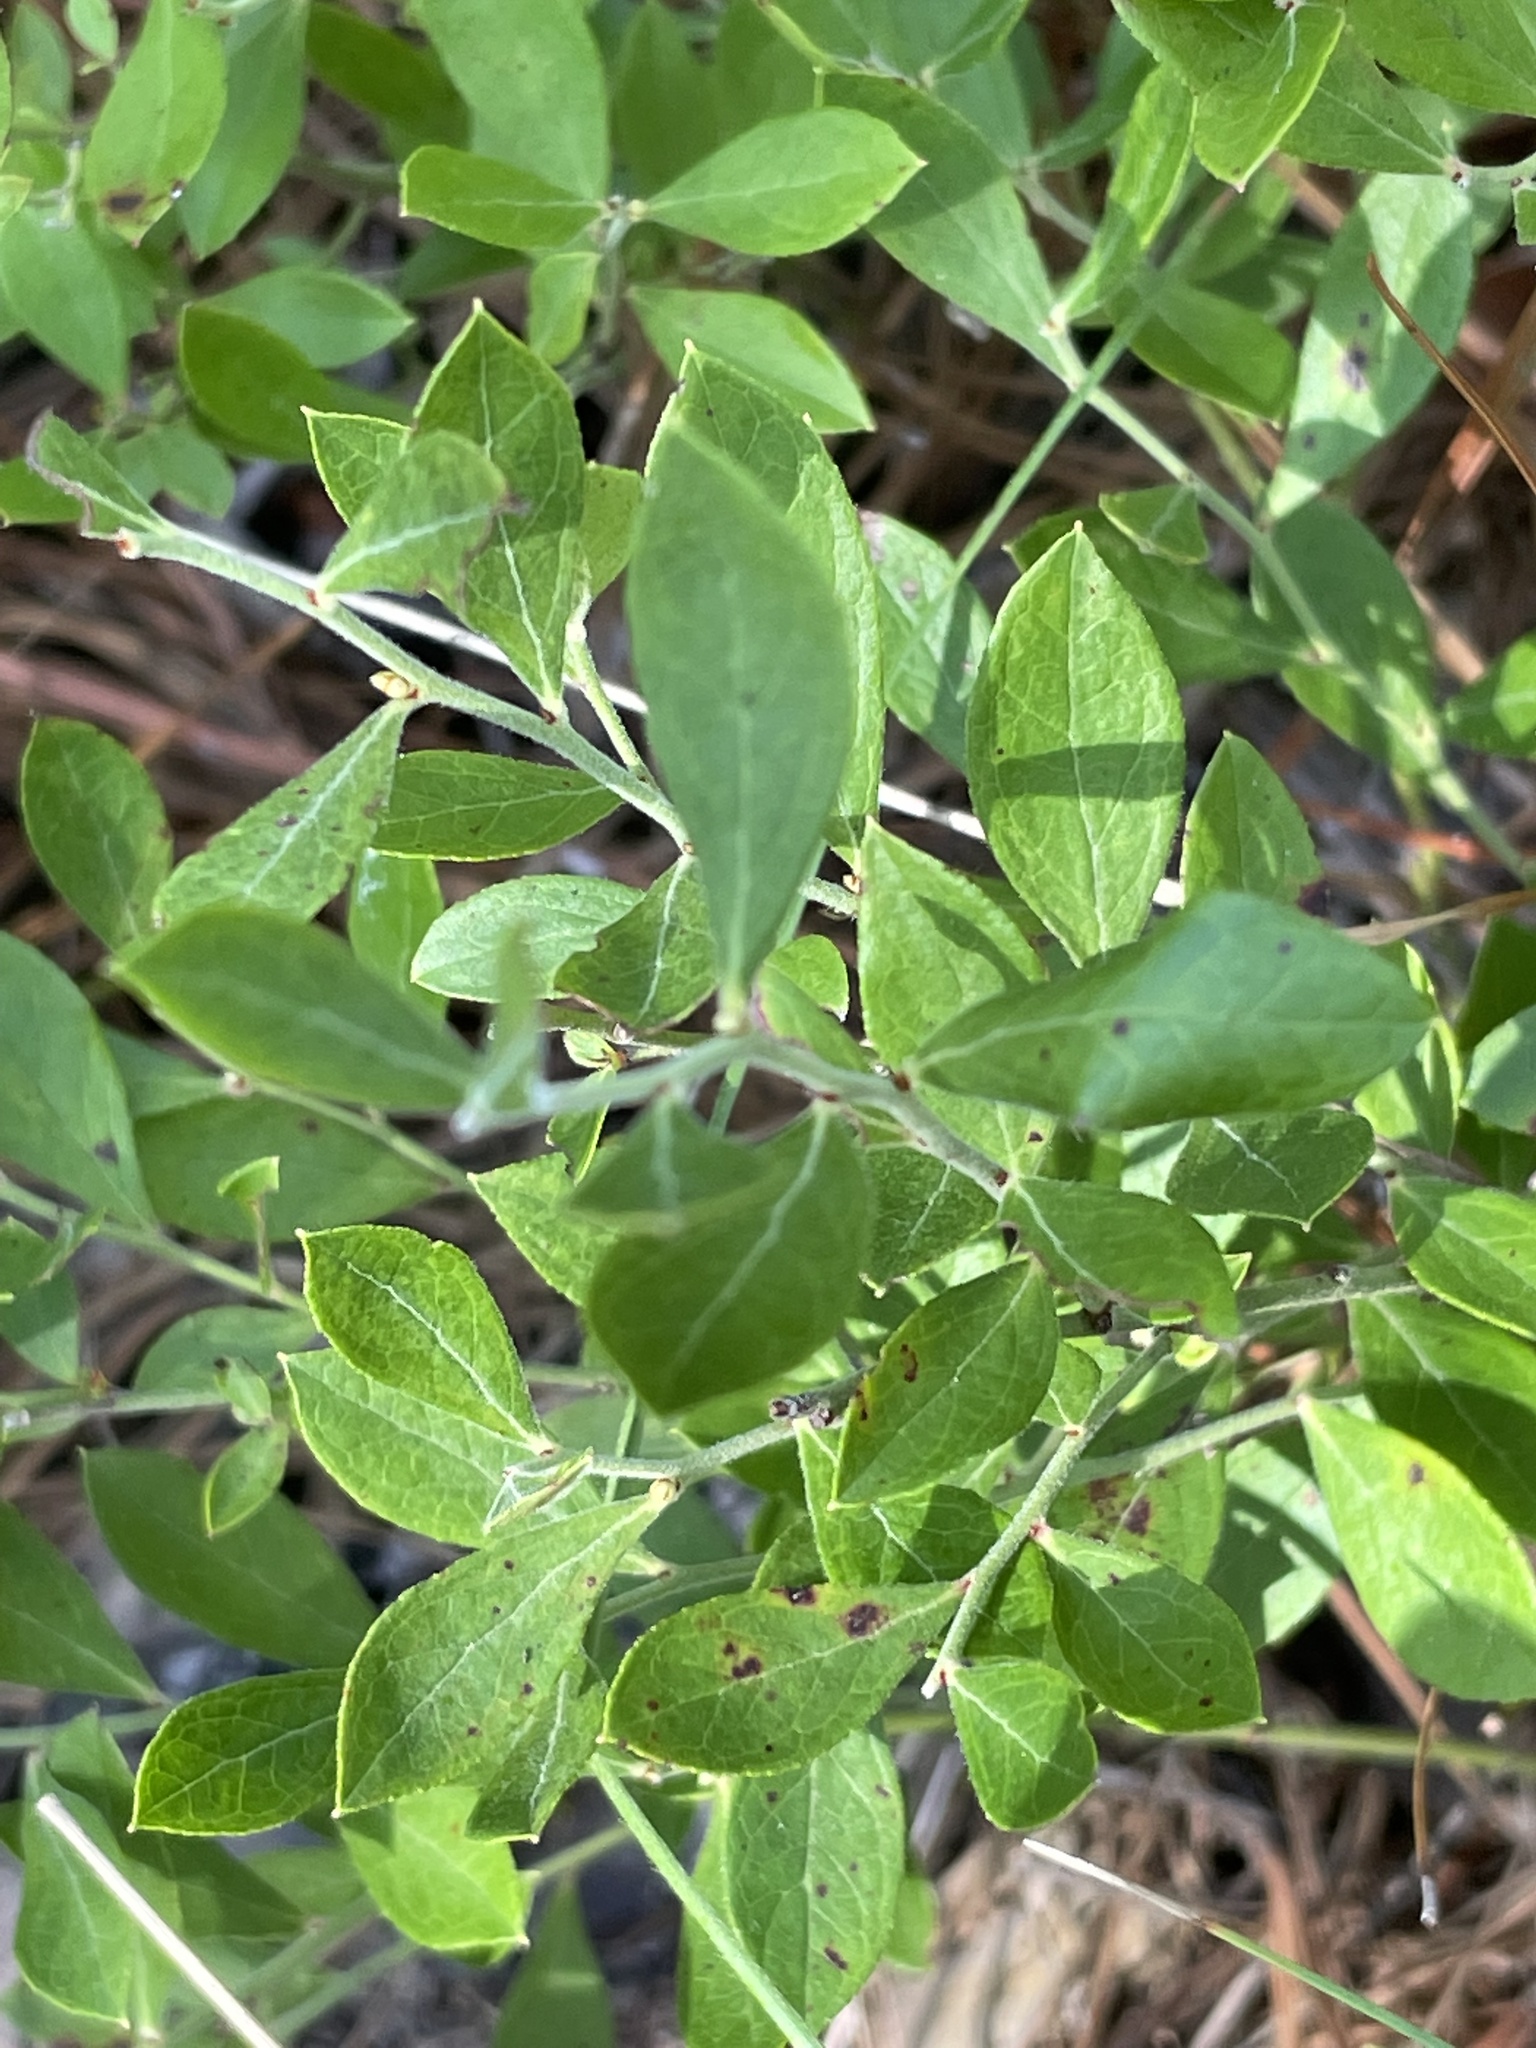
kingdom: Plantae
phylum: Tracheophyta
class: Magnoliopsida
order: Ericales
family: Ericaceae
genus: Vaccinium
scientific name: Vaccinium tenellum
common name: Southern blueberry
